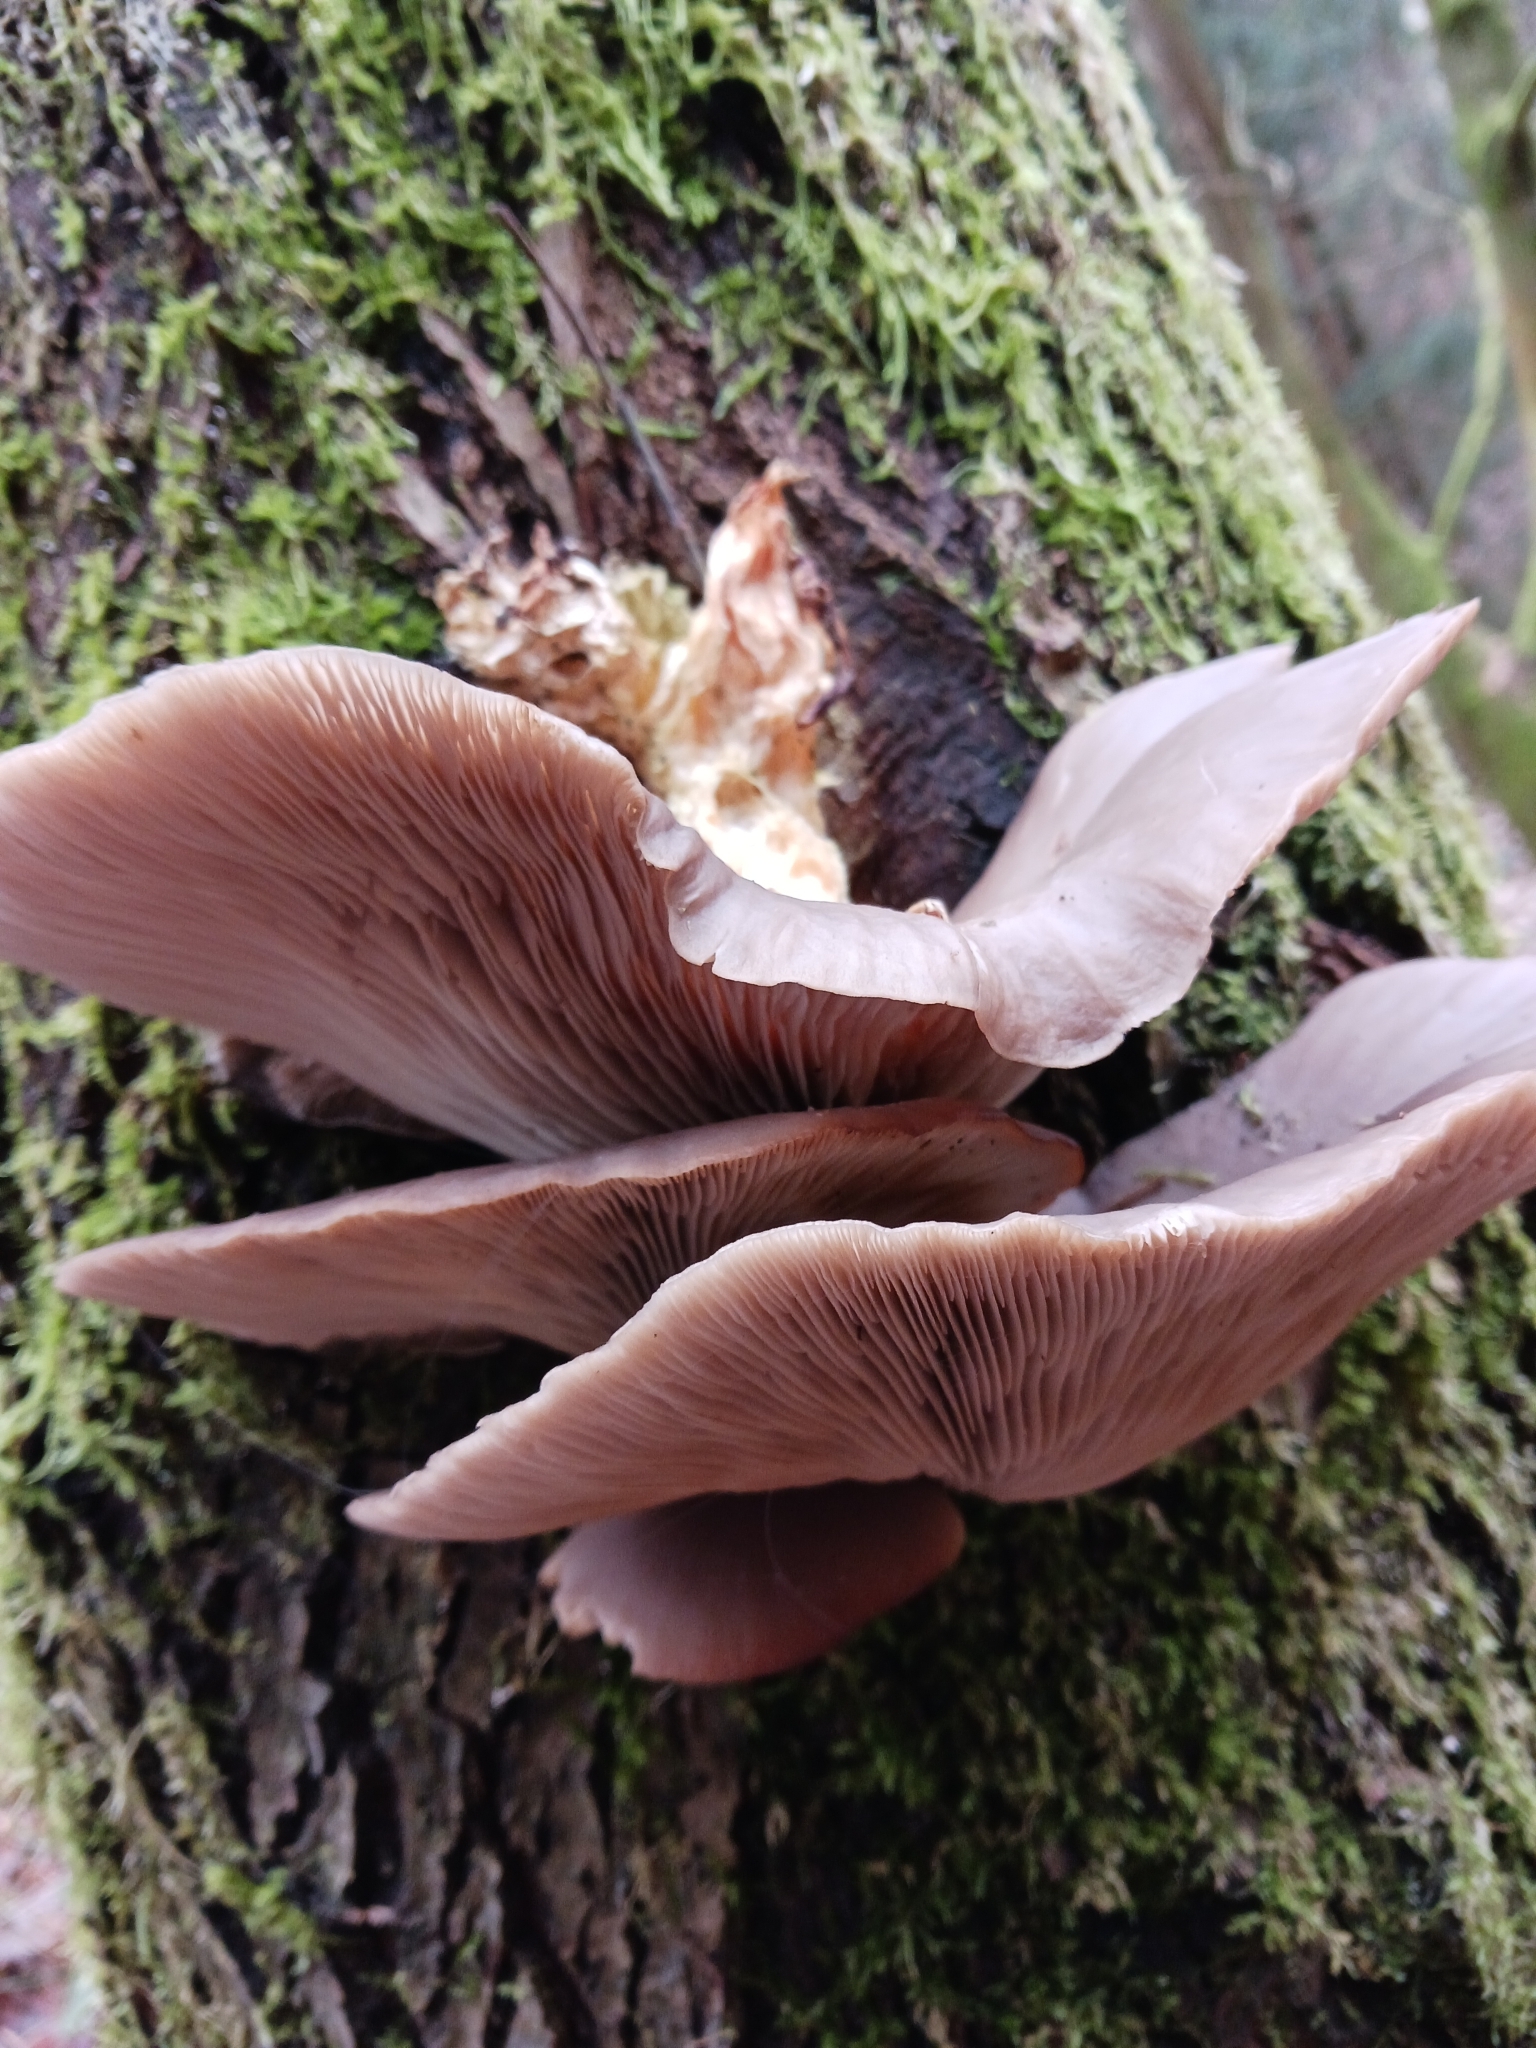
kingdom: Fungi
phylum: Basidiomycota
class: Agaricomycetes
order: Agaricales
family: Pleurotaceae
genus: Pleurotus
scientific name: Pleurotus ostreatus
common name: Oyster mushroom
